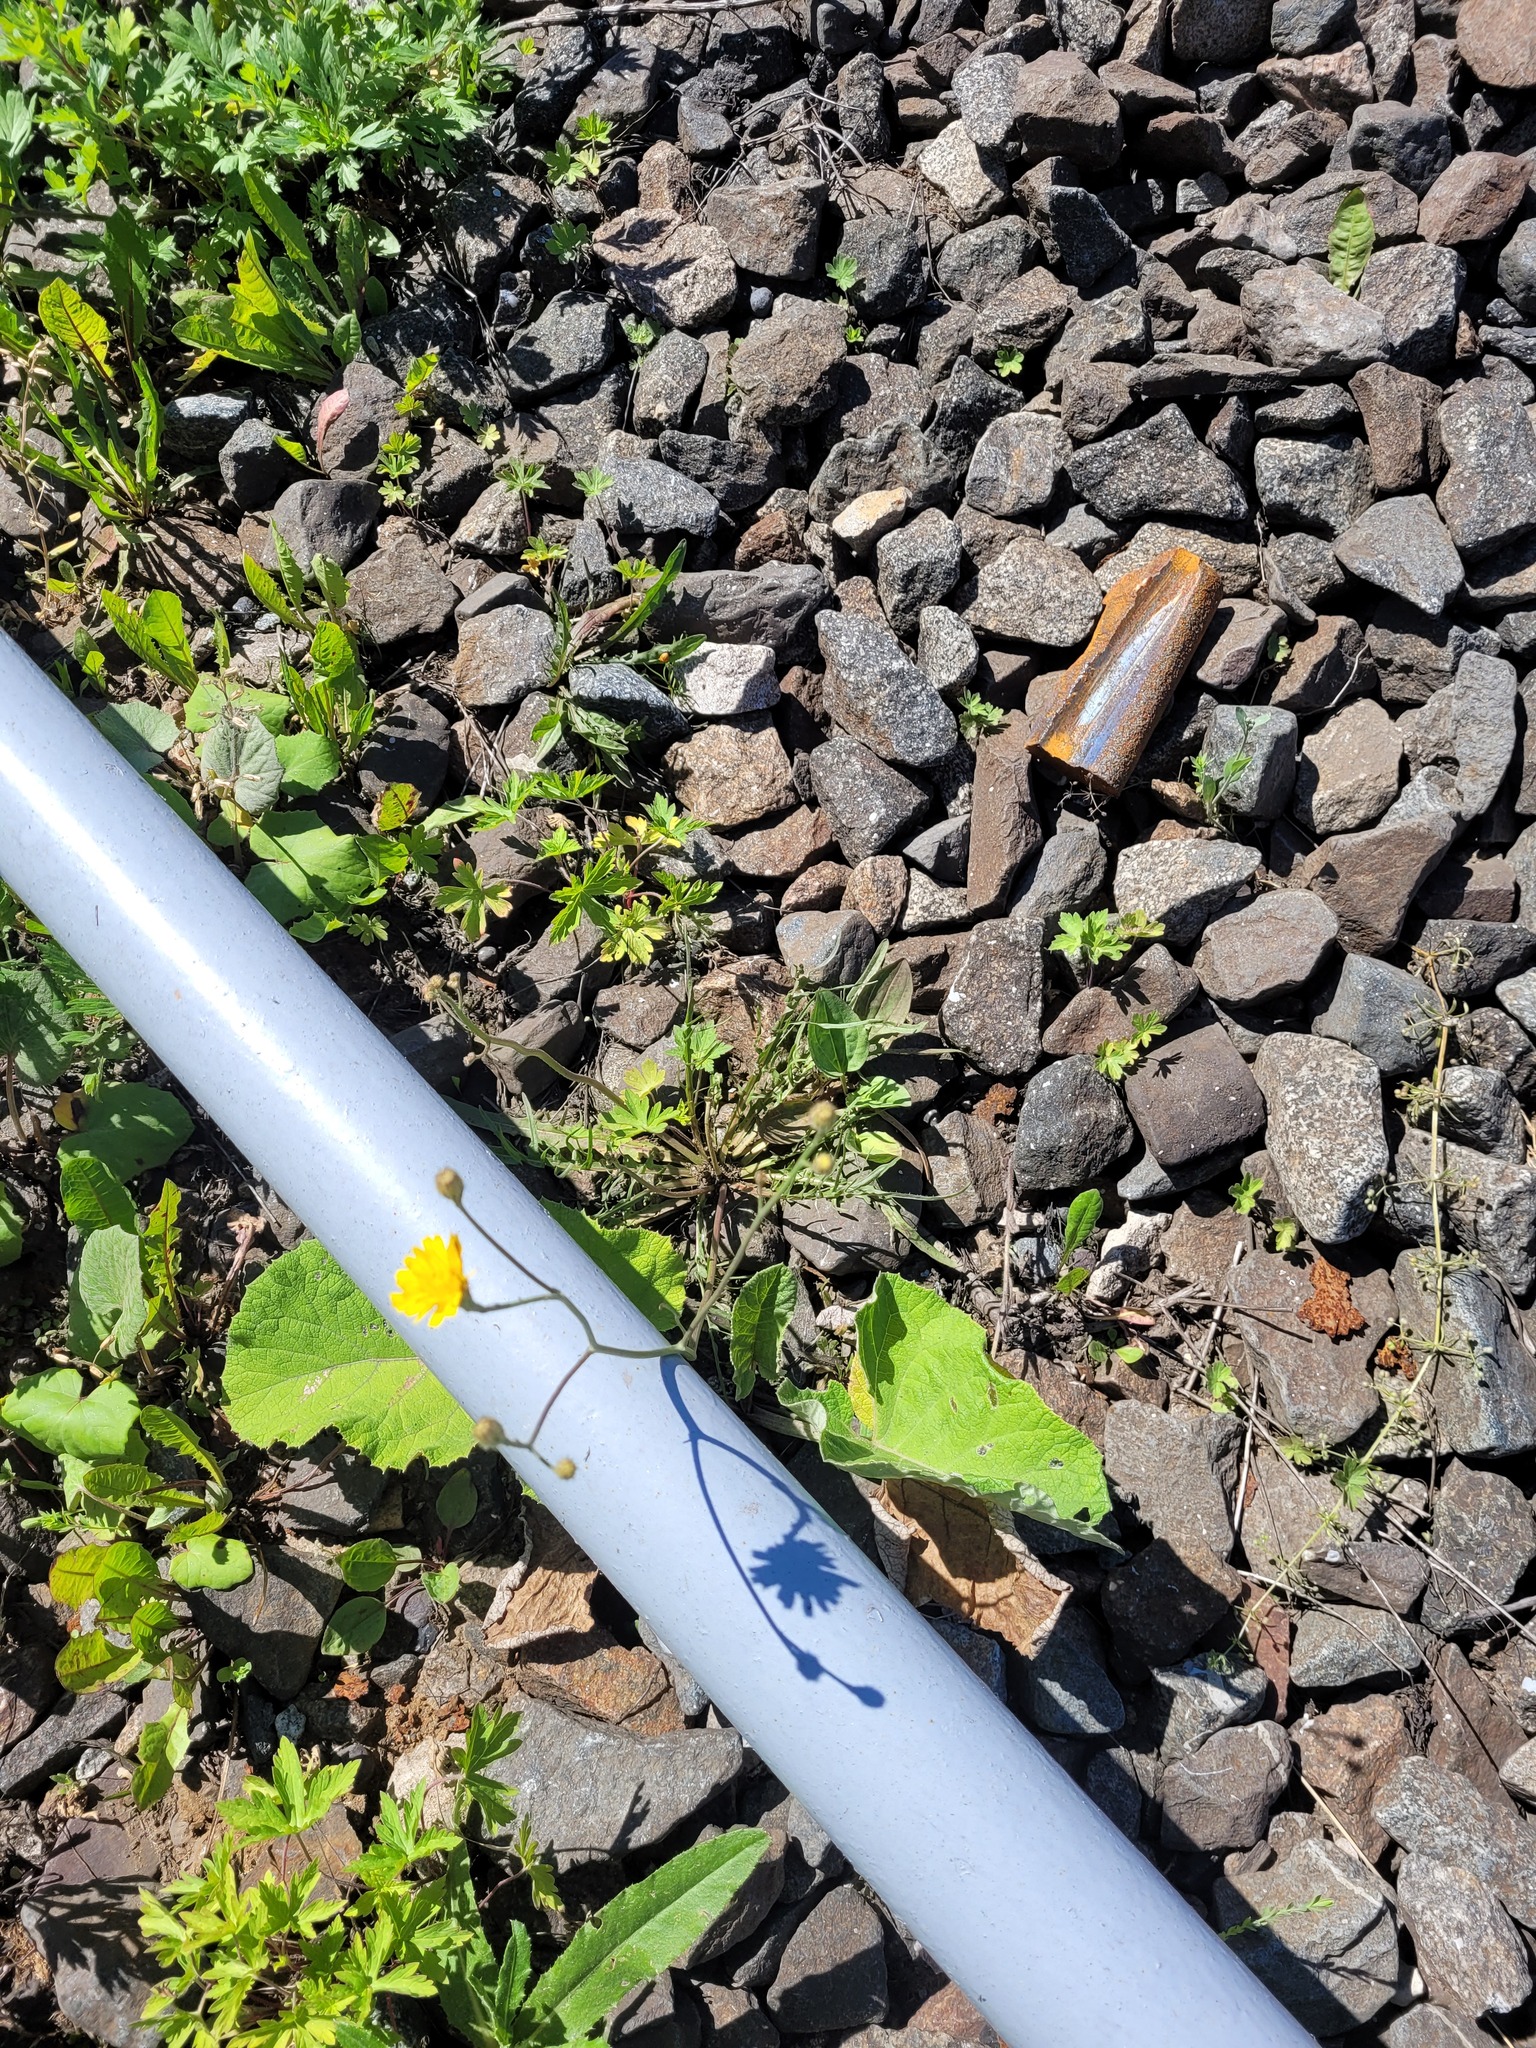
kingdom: Plantae
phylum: Tracheophyta
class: Magnoliopsida
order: Asterales
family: Asteraceae
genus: Scorzoneroides
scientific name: Scorzoneroides autumnalis
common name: Autumn hawkbit
